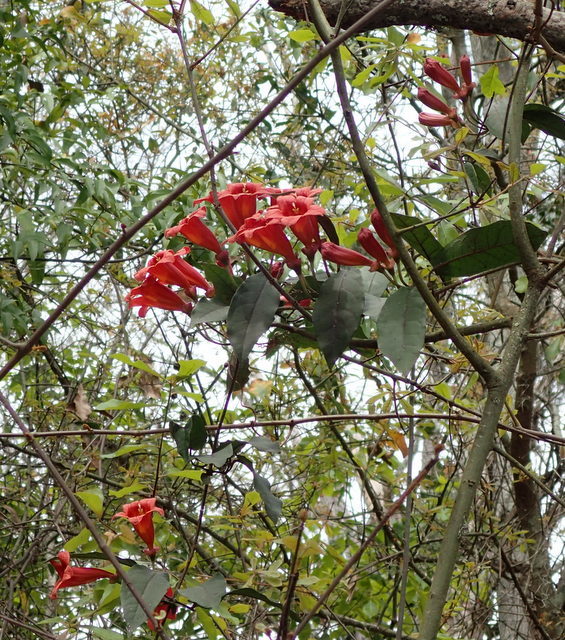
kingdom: Plantae
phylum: Tracheophyta
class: Magnoliopsida
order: Lamiales
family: Bignoniaceae
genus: Bignonia
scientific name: Bignonia capreolata
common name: Crossvine
